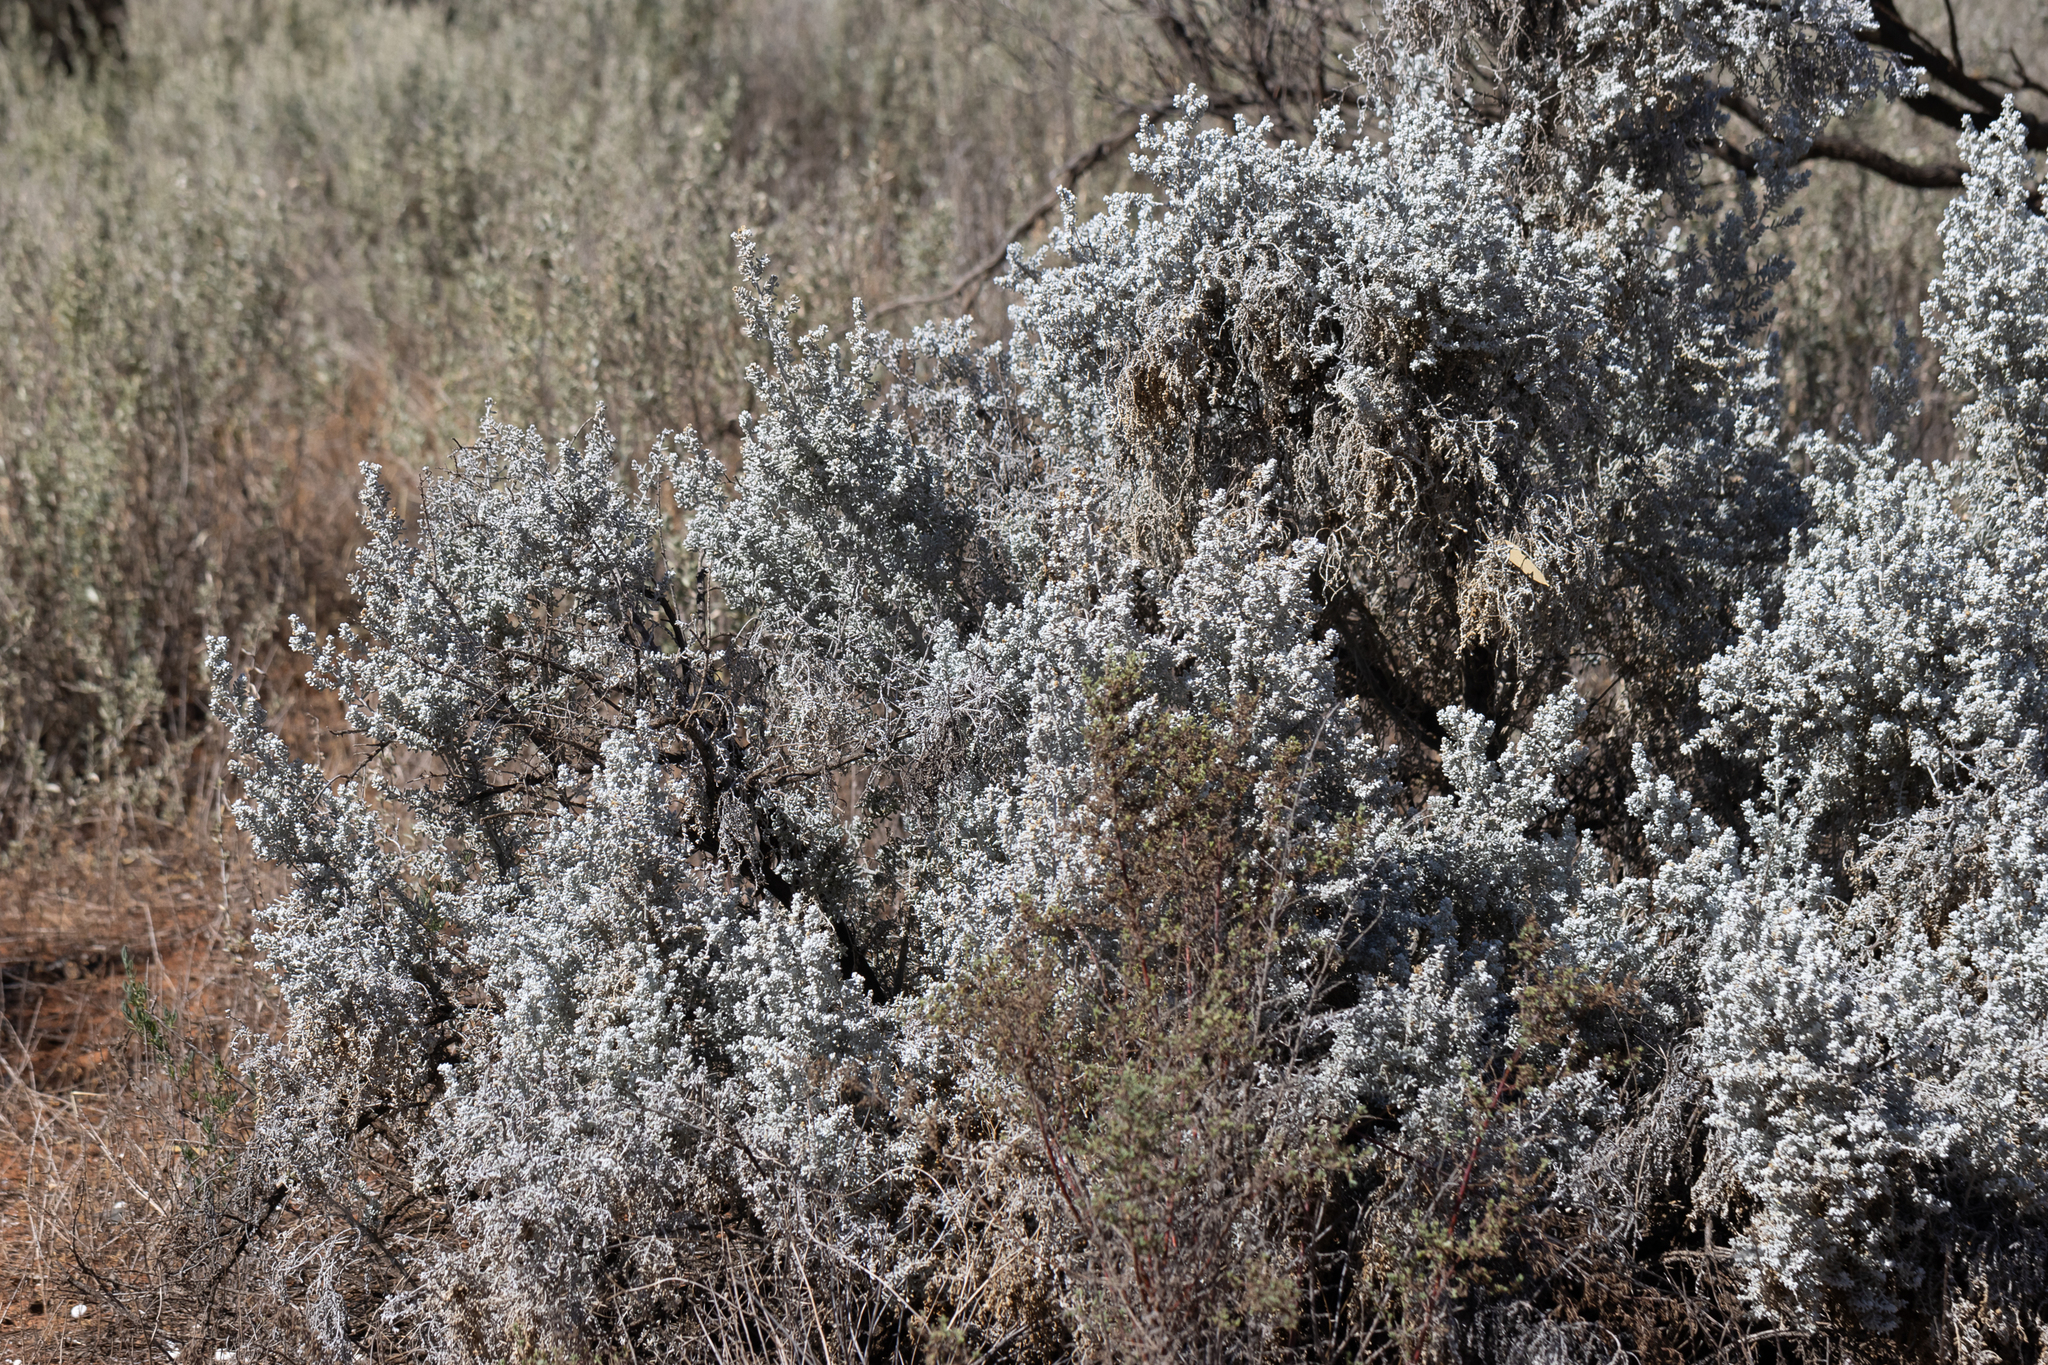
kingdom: Plantae
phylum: Tracheophyta
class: Magnoliopsida
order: Caryophyllales
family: Amaranthaceae
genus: Maireana
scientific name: Maireana sedifolia
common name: Hoary bluebush
